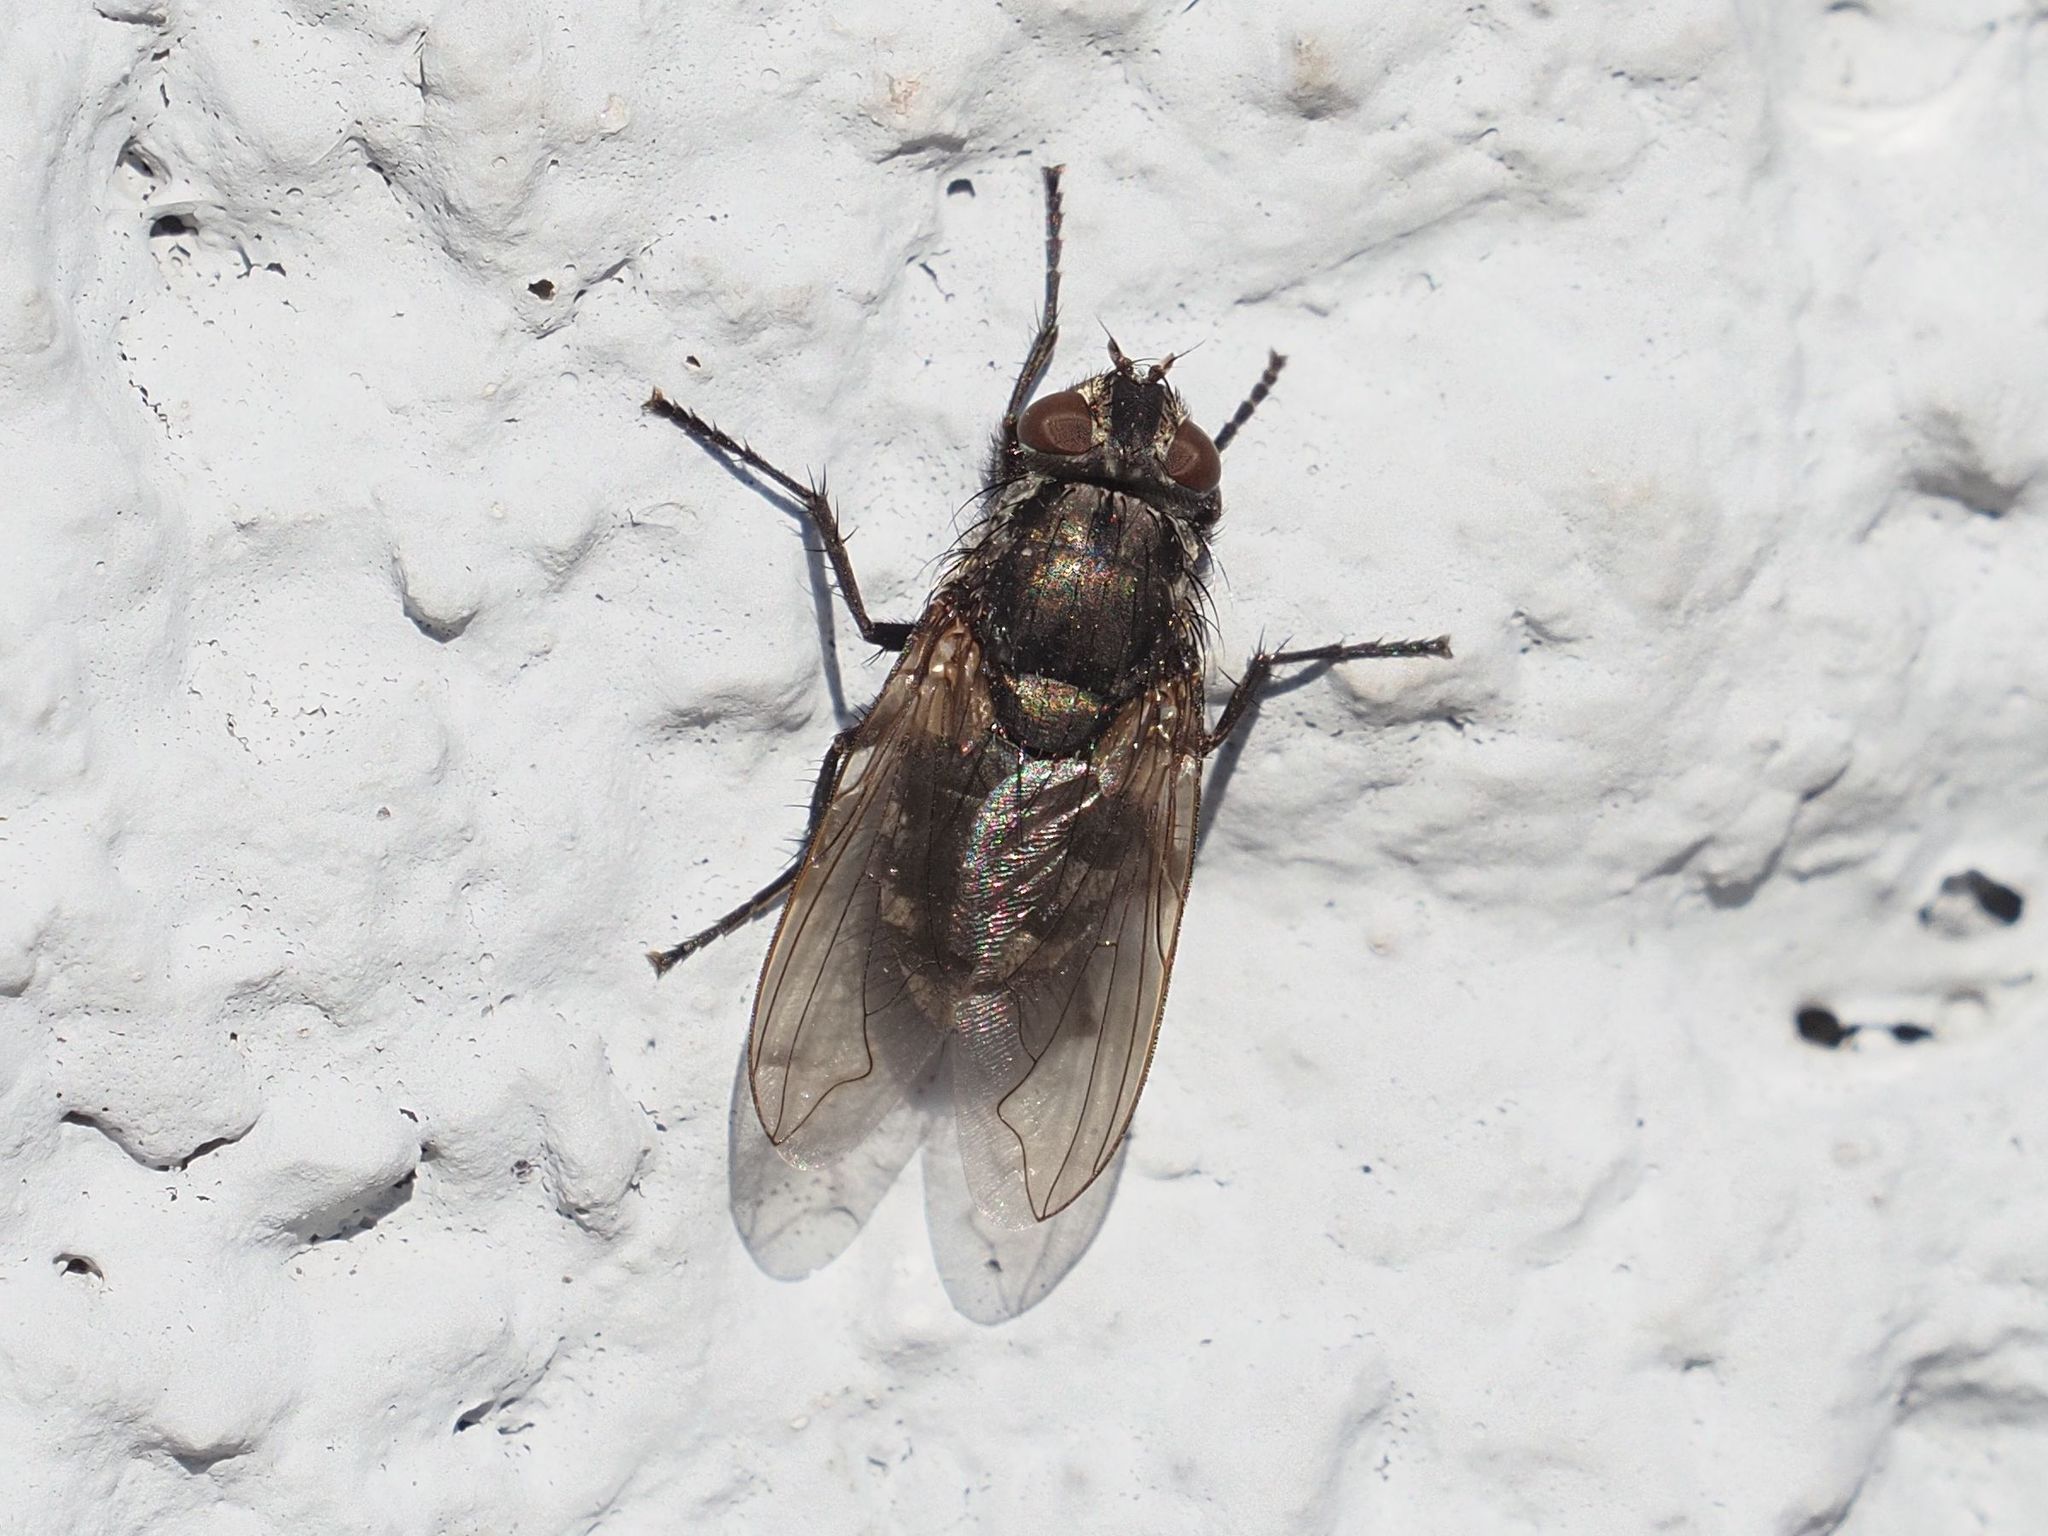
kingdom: Animalia
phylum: Arthropoda
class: Insecta
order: Diptera
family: Polleniidae
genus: Pollenia
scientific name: Pollenia vagabunda
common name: Vagabund cluster fly
